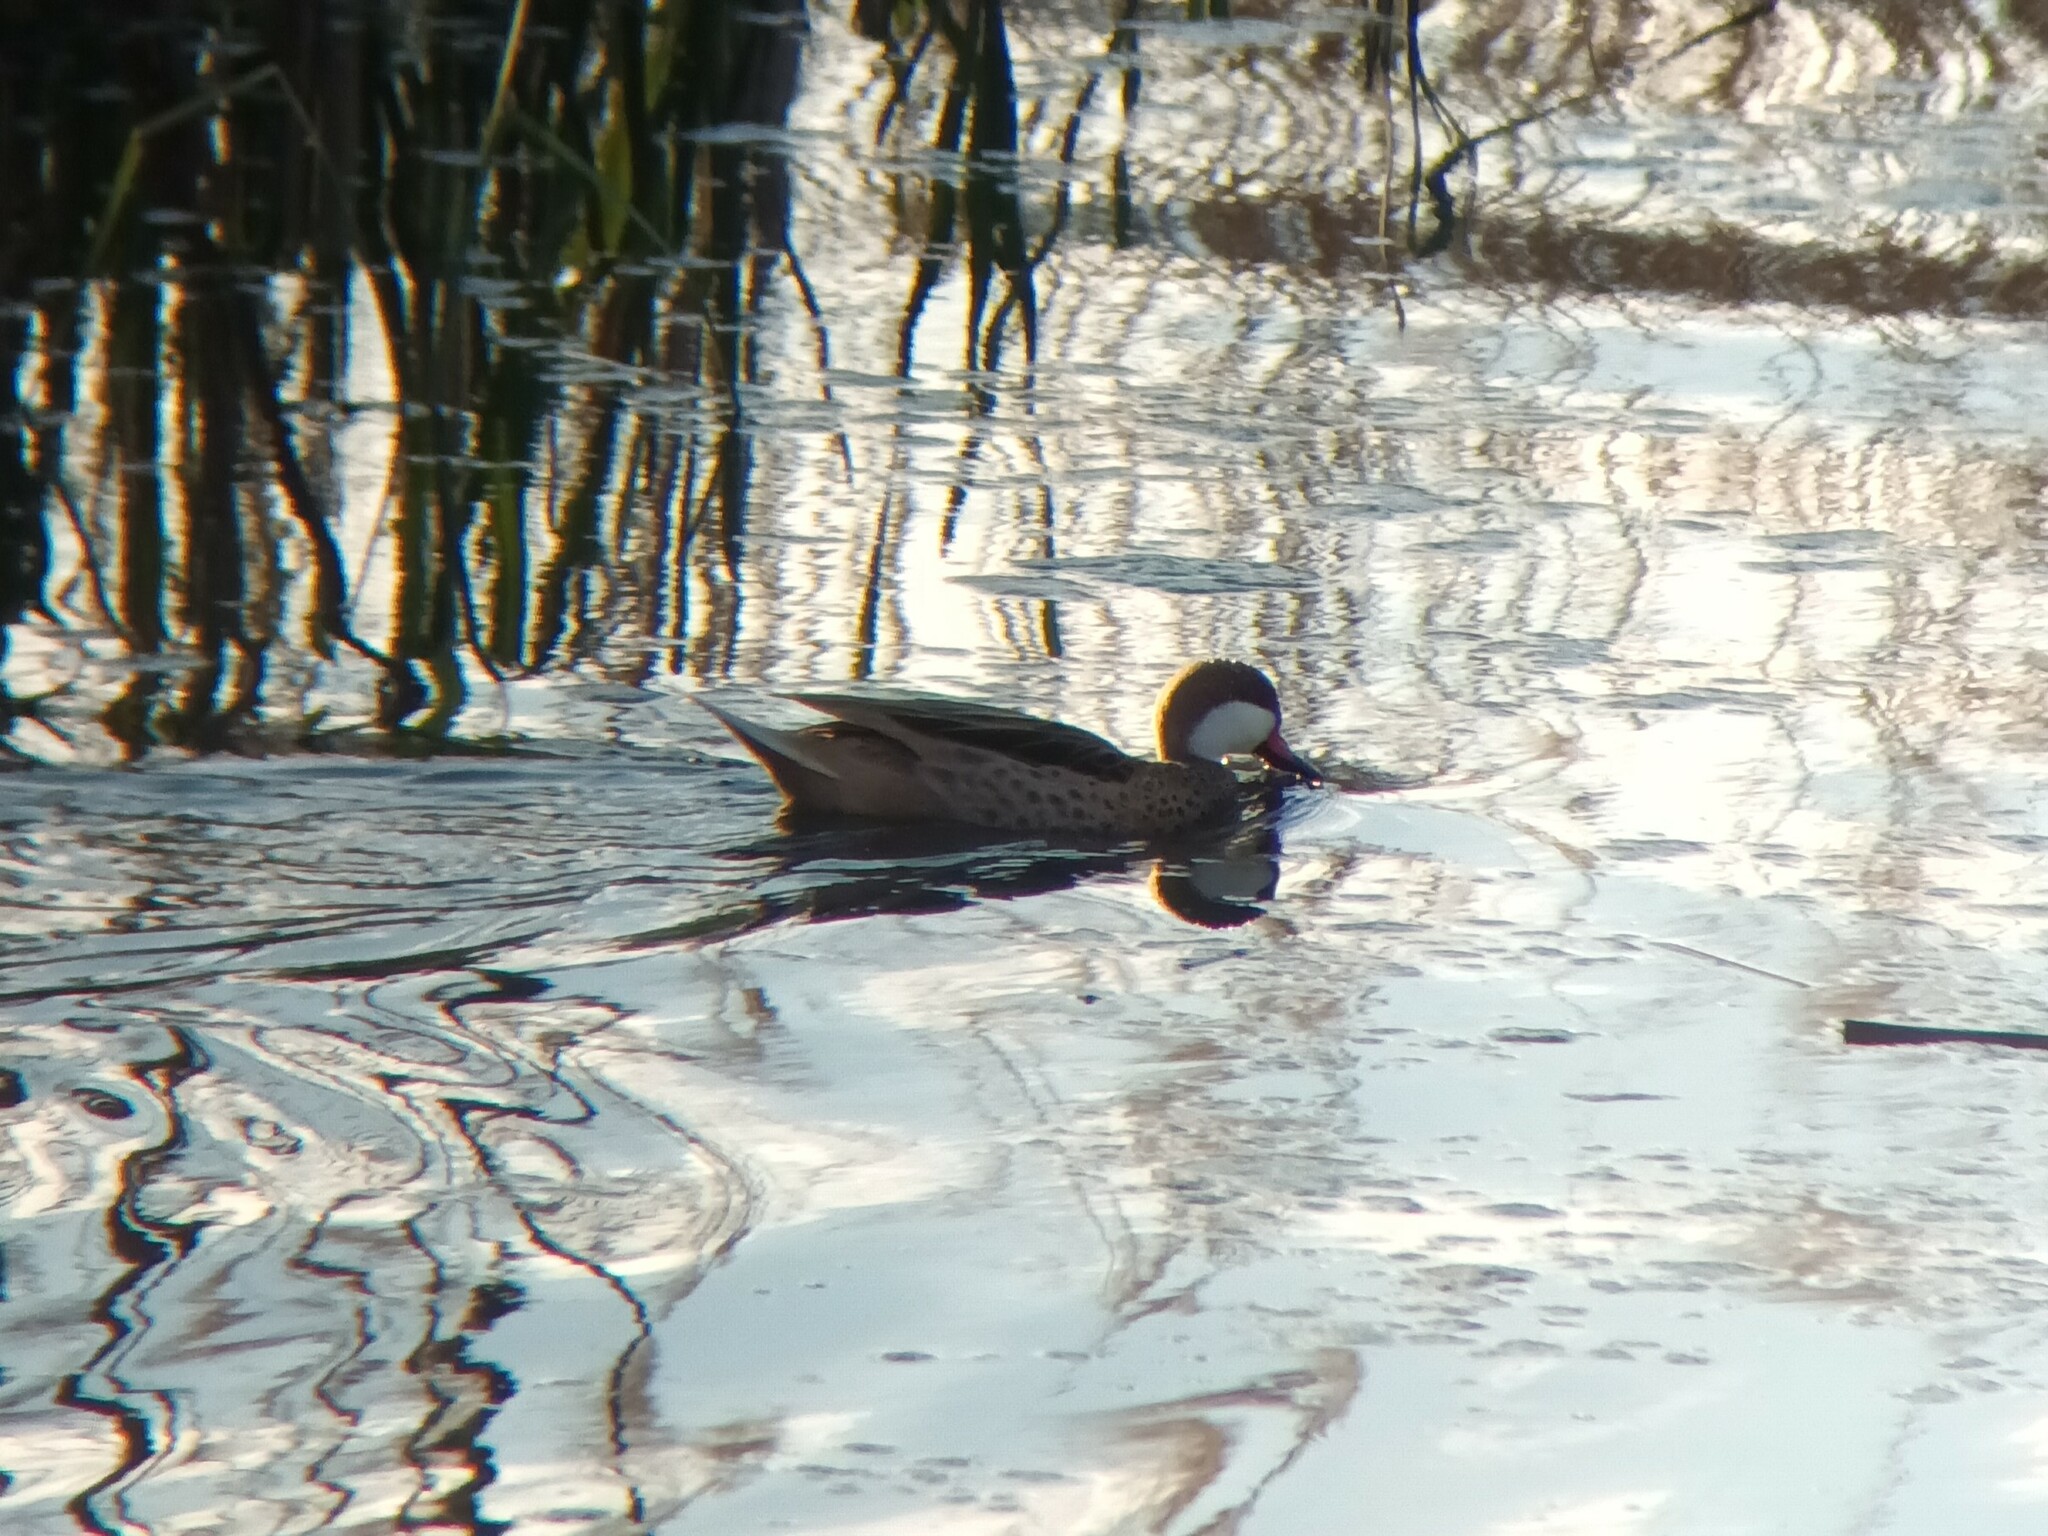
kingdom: Animalia
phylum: Chordata
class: Aves
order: Anseriformes
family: Anatidae
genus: Anas
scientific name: Anas bahamensis
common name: White-cheeked pintail
